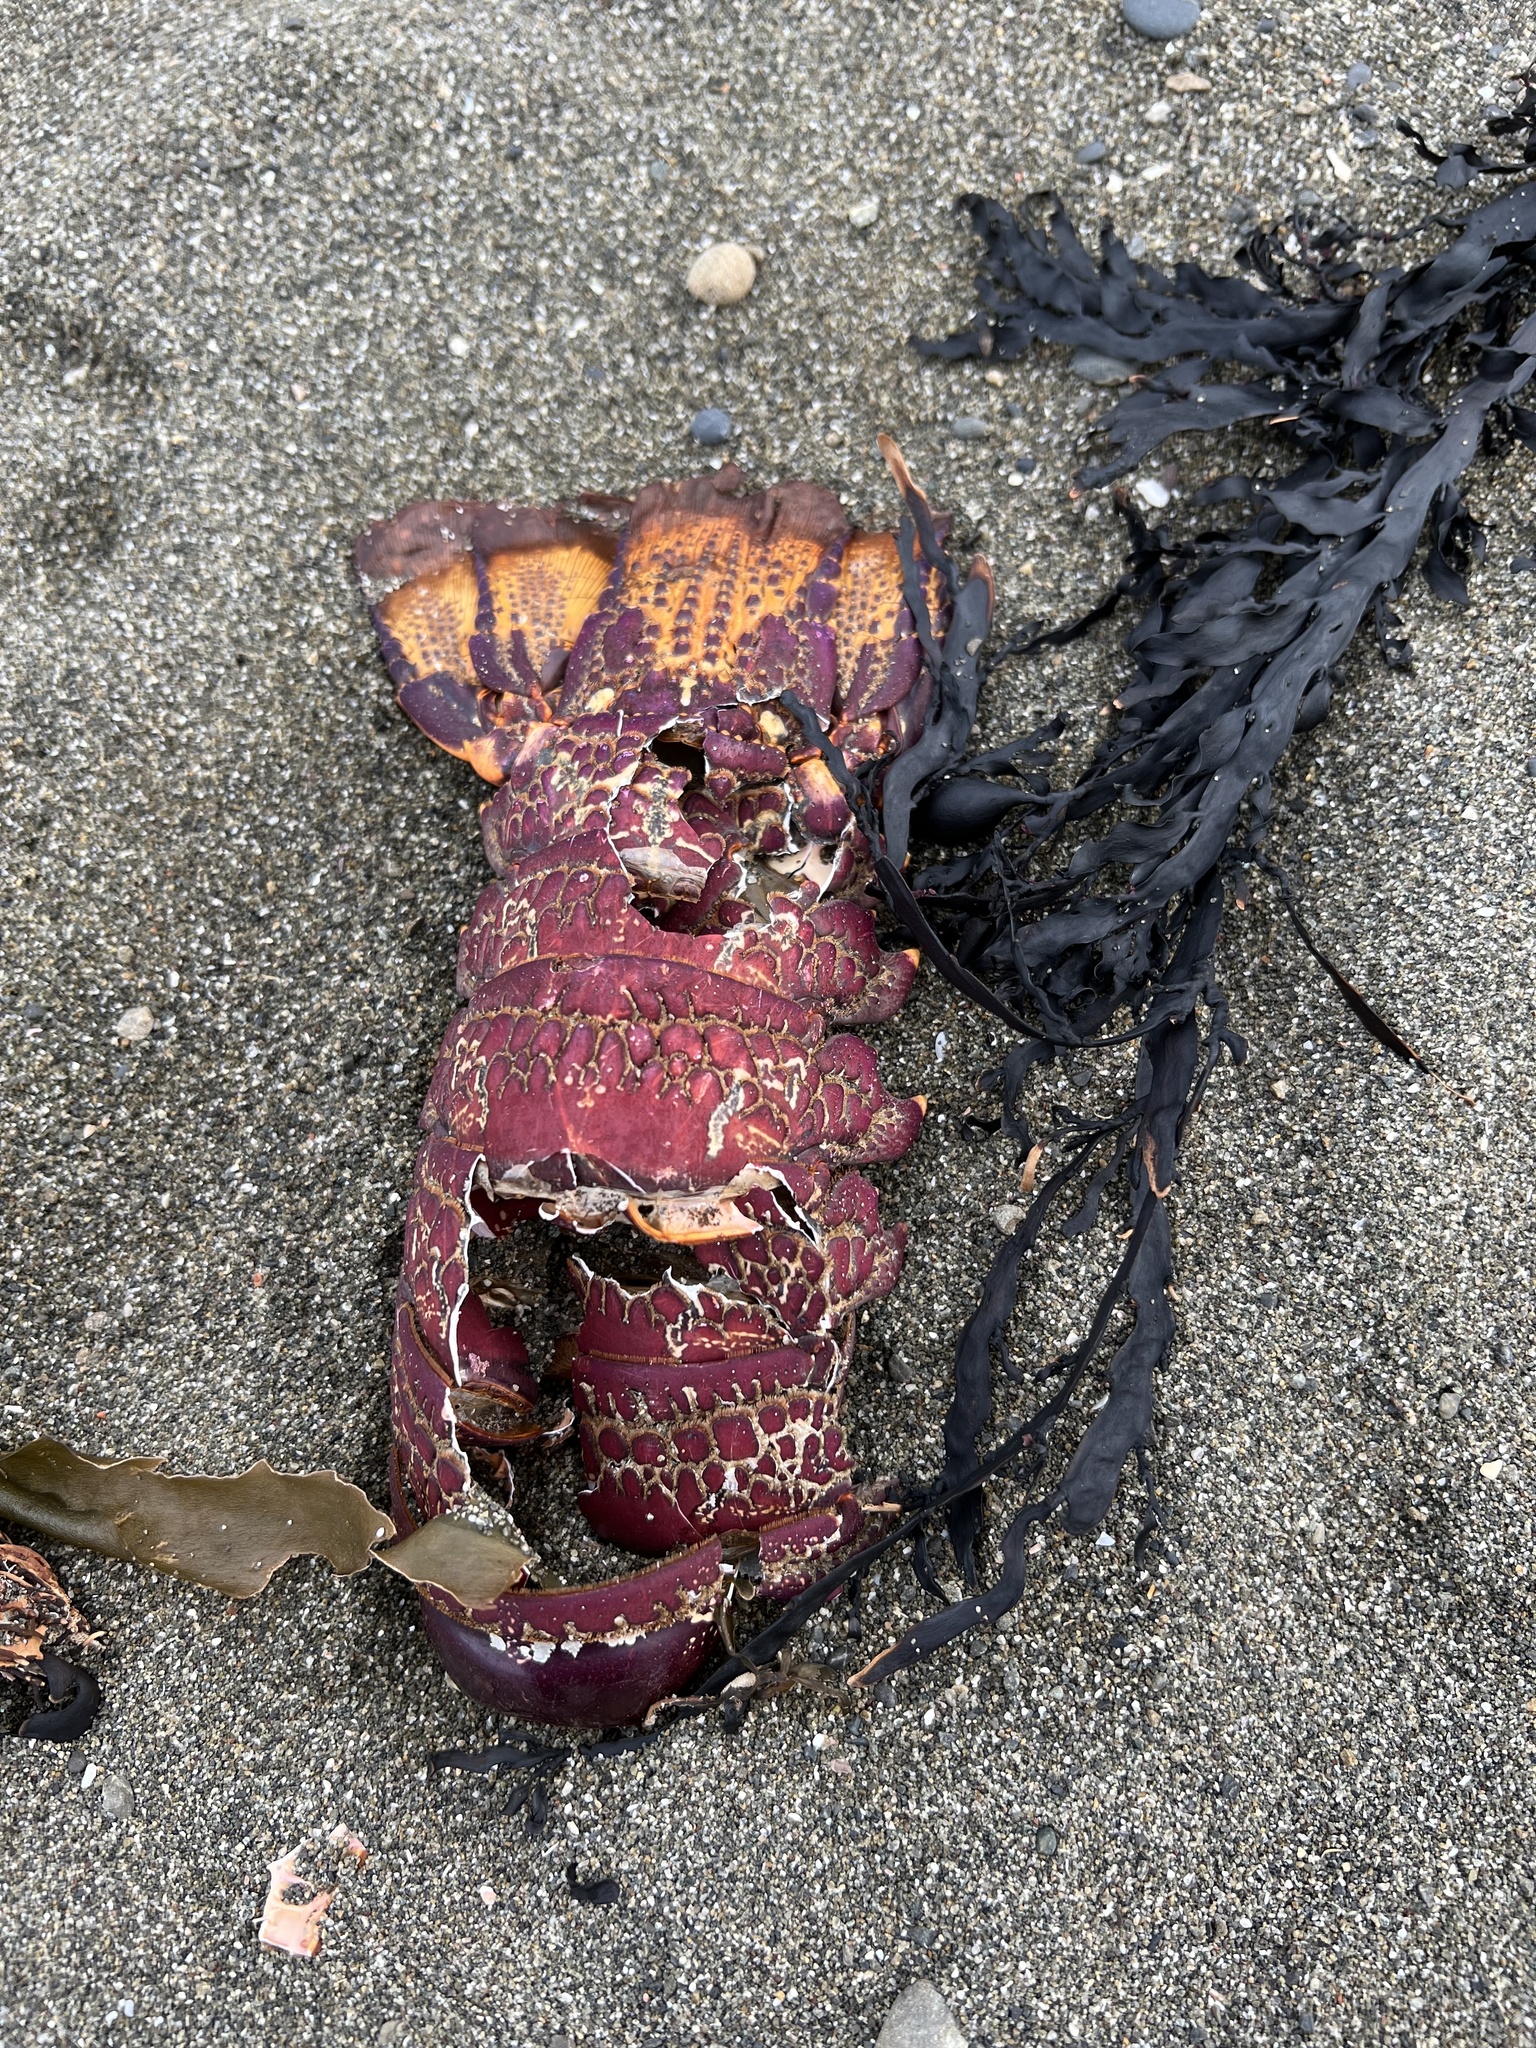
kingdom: Animalia
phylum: Arthropoda
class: Malacostraca
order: Decapoda
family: Palinuridae
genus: Jasus
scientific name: Jasus edwardsii
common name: Red rock lobster
